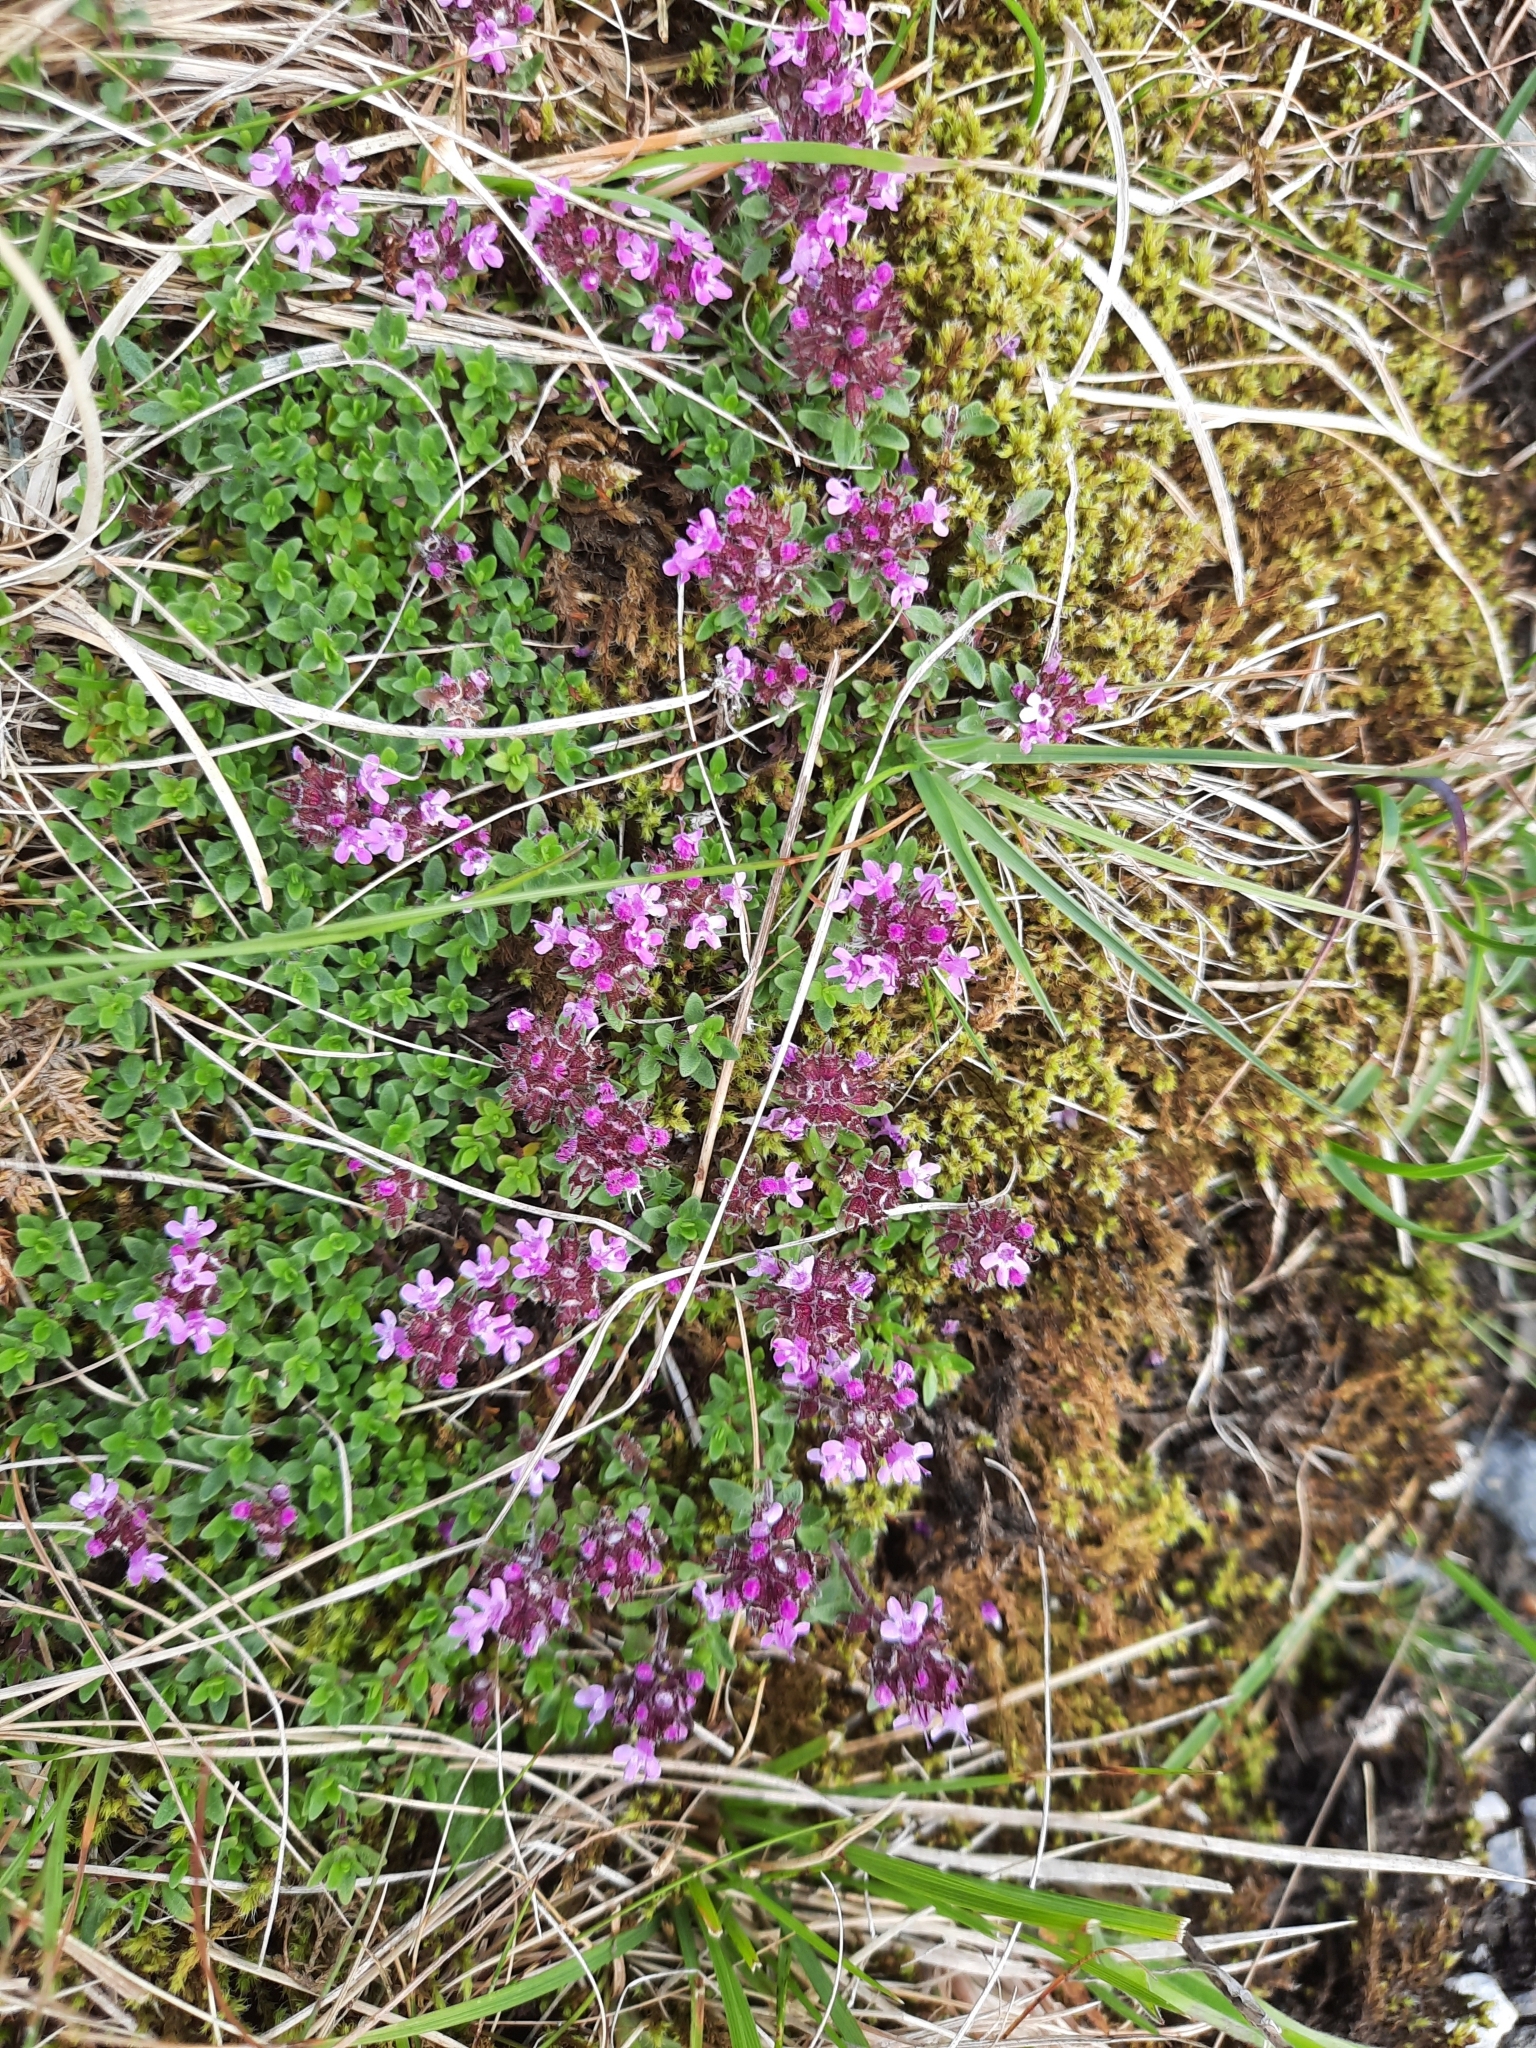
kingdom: Plantae
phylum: Tracheophyta
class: Magnoliopsida
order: Lamiales
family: Lamiaceae
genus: Thymus
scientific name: Thymus praecox
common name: Wild thyme
